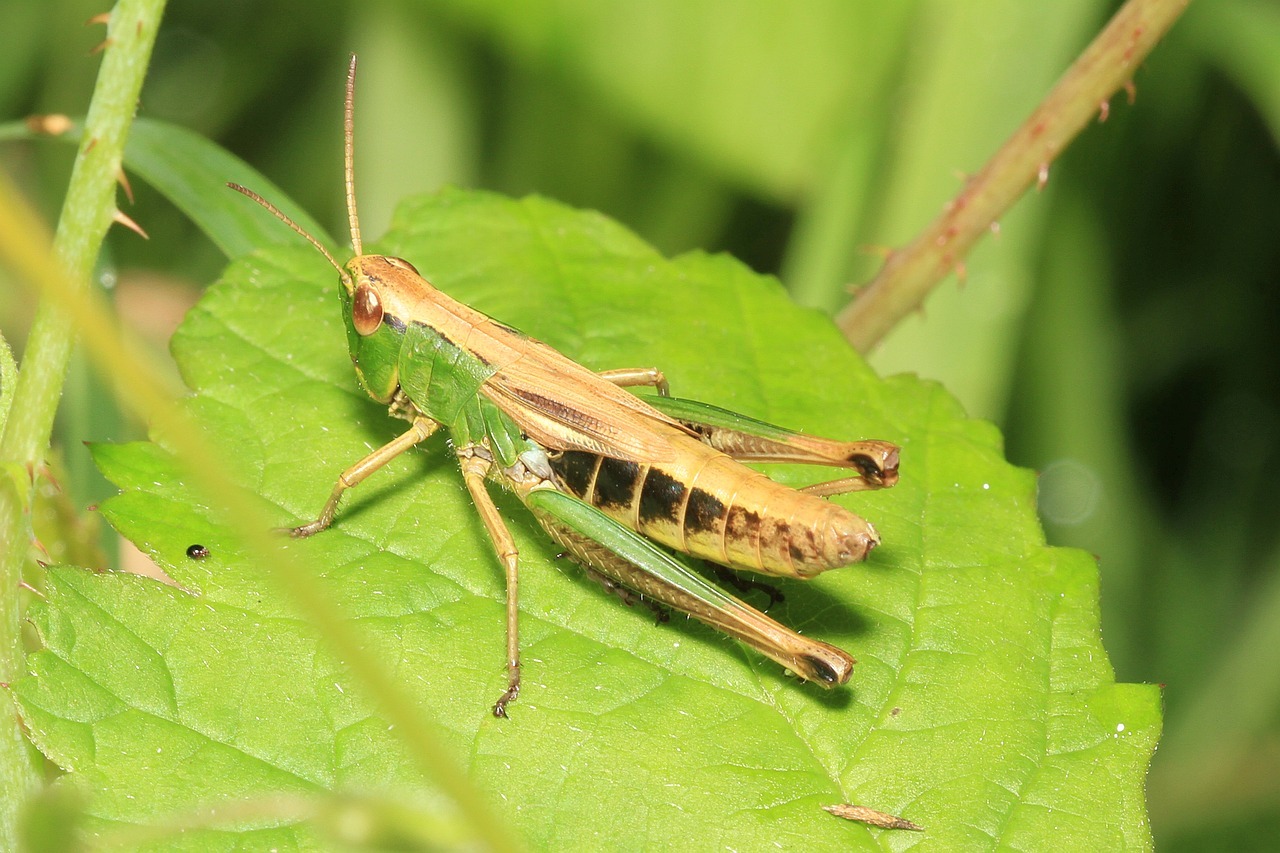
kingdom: Animalia
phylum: Arthropoda
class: Insecta
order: Orthoptera
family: Acrididae
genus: Pseudochorthippus
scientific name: Pseudochorthippus parallelus
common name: Meadow grasshopper
